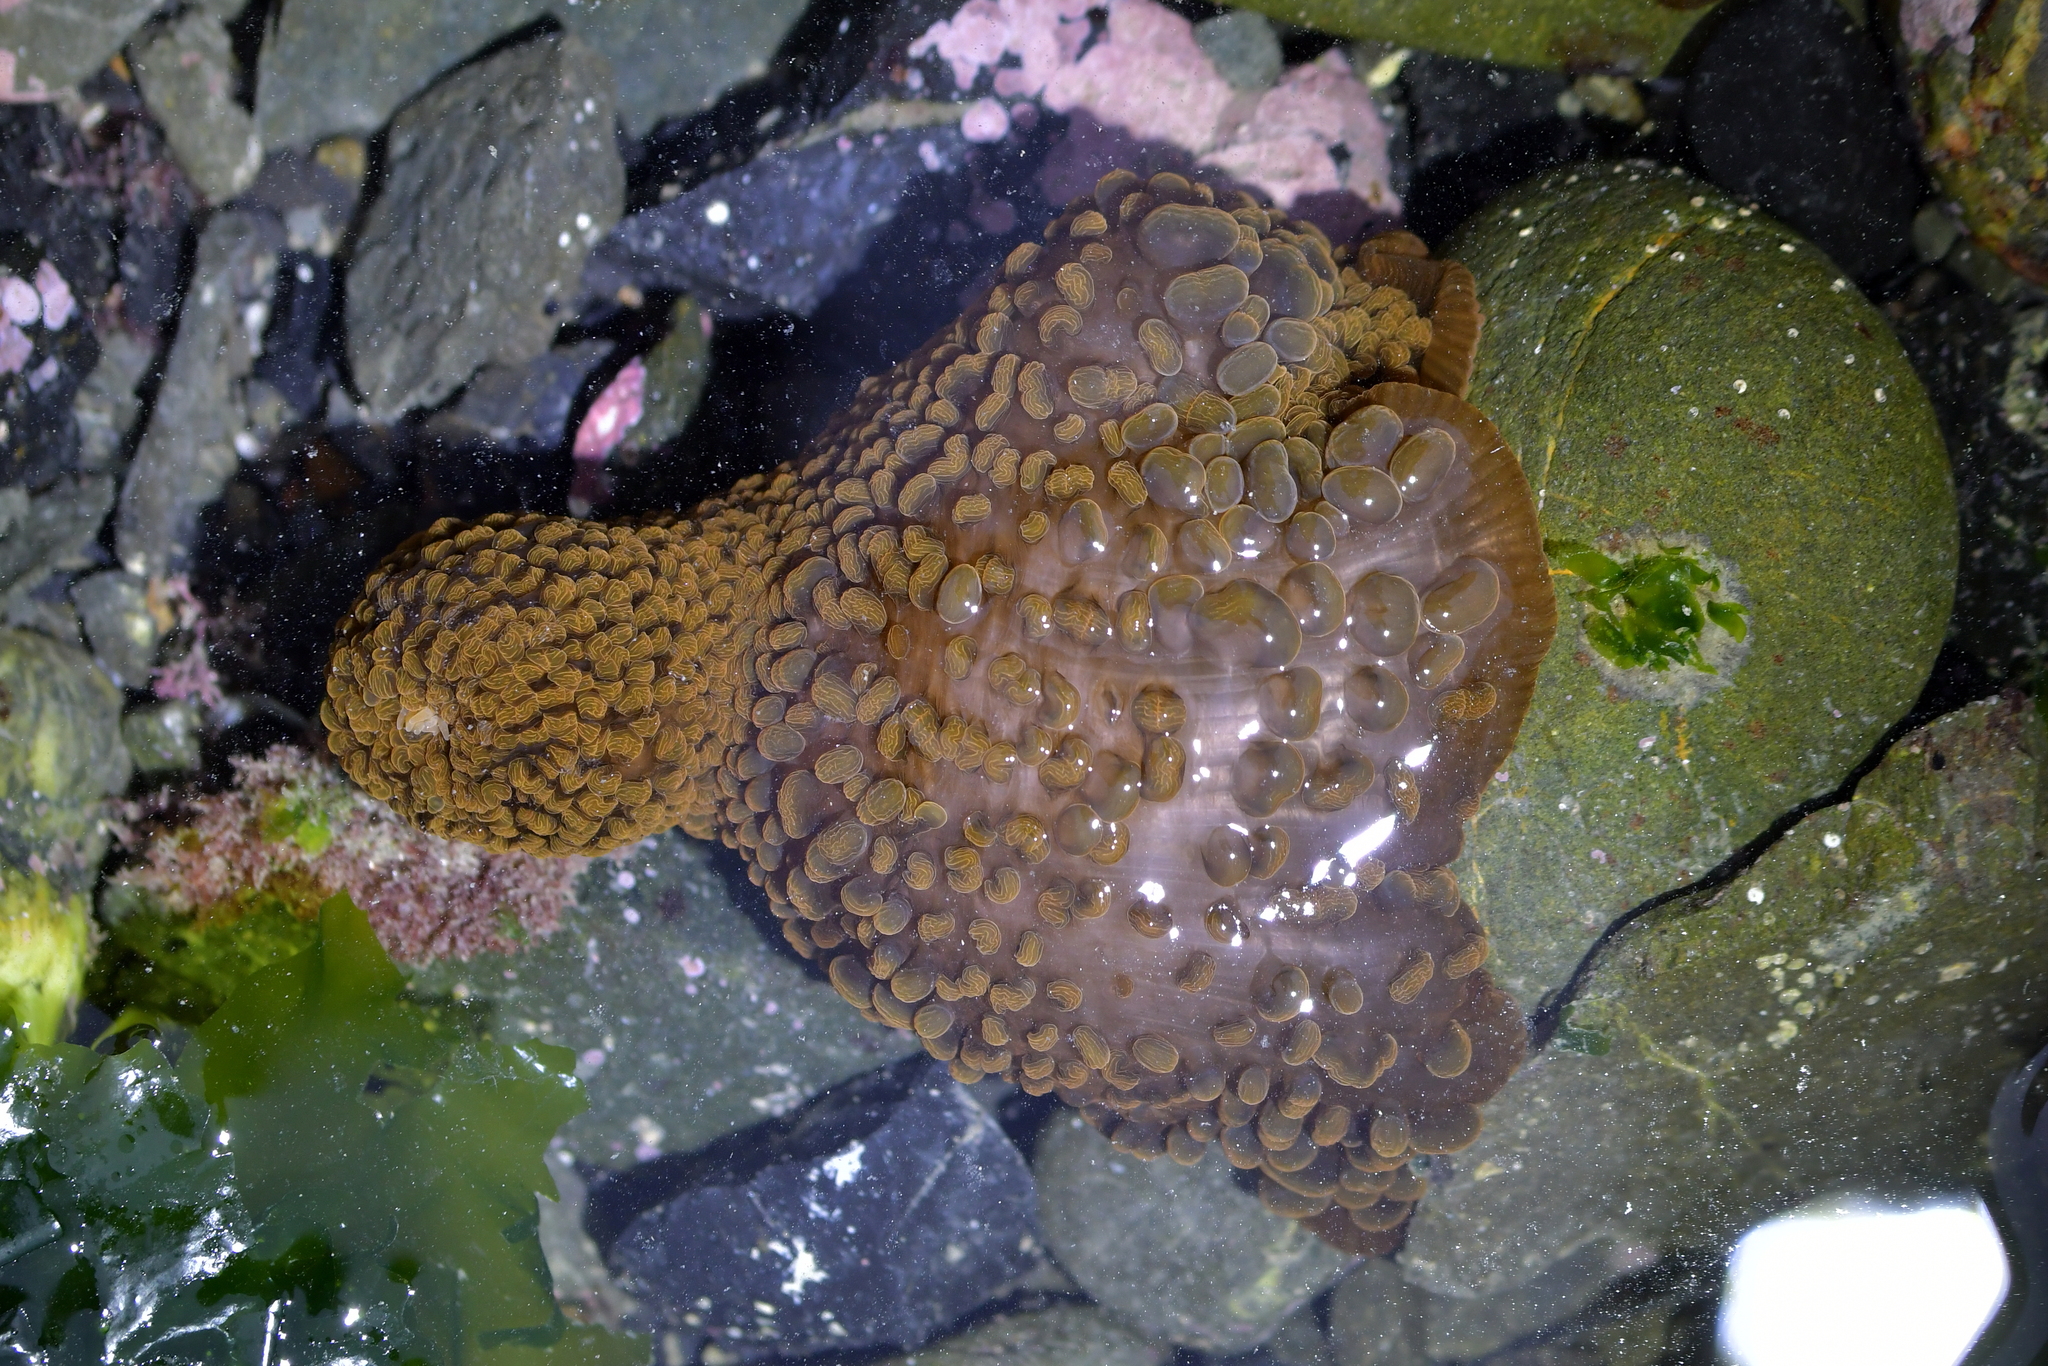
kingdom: Animalia
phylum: Cnidaria
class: Anthozoa
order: Actiniaria
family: Actiniidae
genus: Phlyctenactis
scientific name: Phlyctenactis tuberculosa
